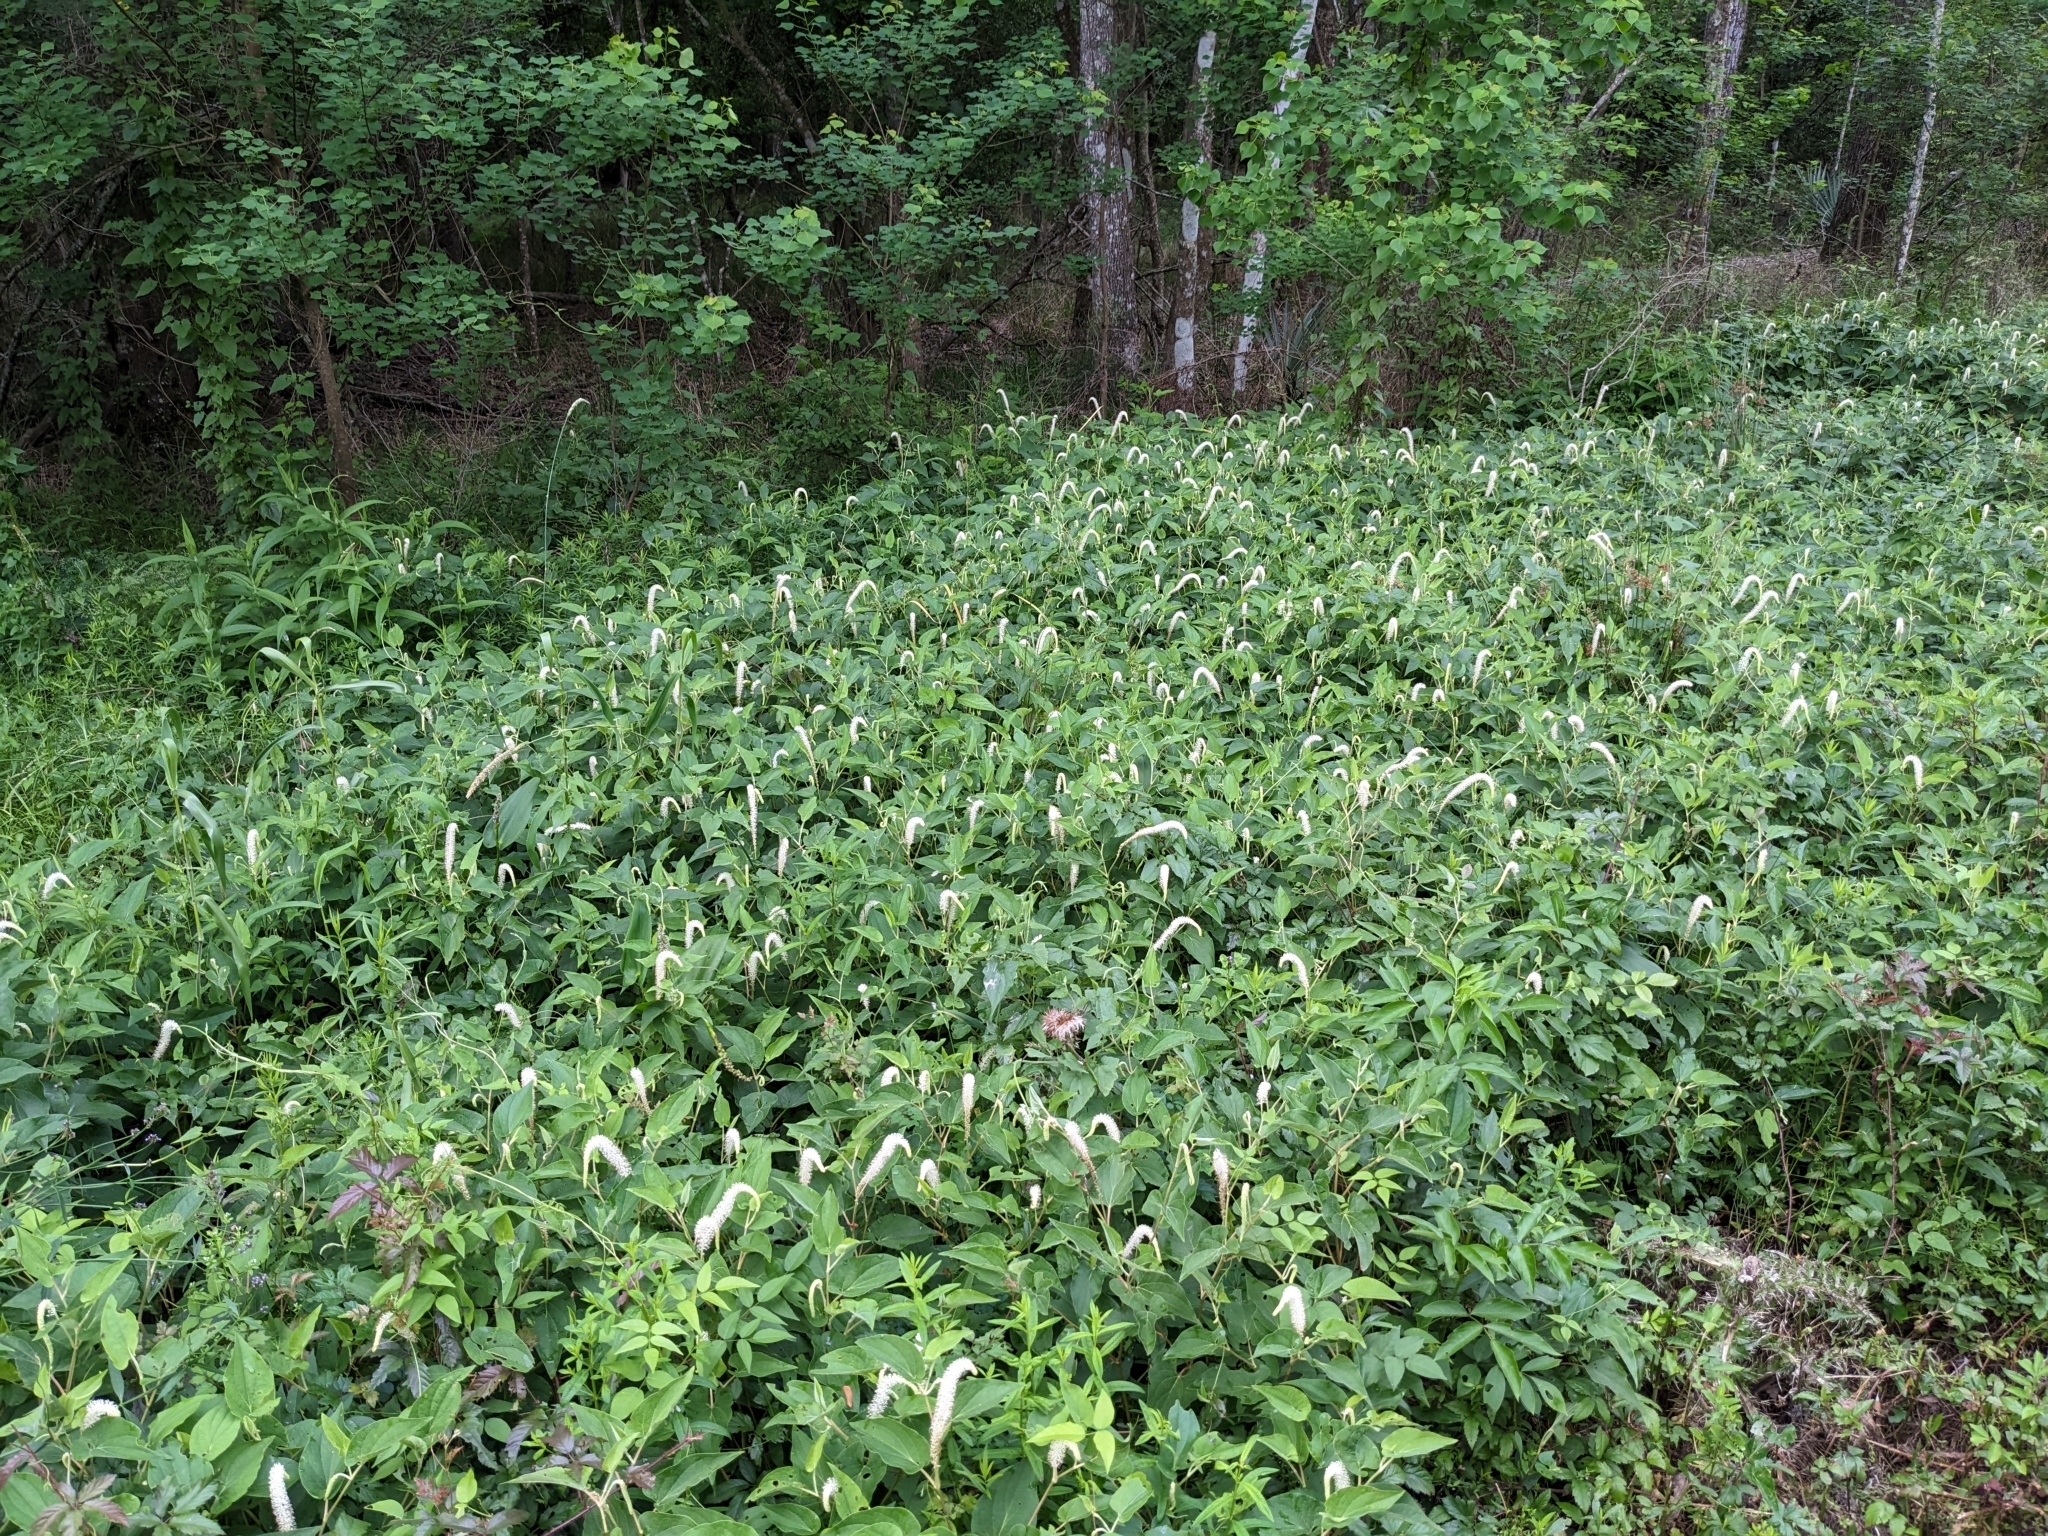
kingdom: Plantae
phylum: Tracheophyta
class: Magnoliopsida
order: Piperales
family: Saururaceae
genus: Saururus
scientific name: Saururus cernuus
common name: Lizard's-tail
